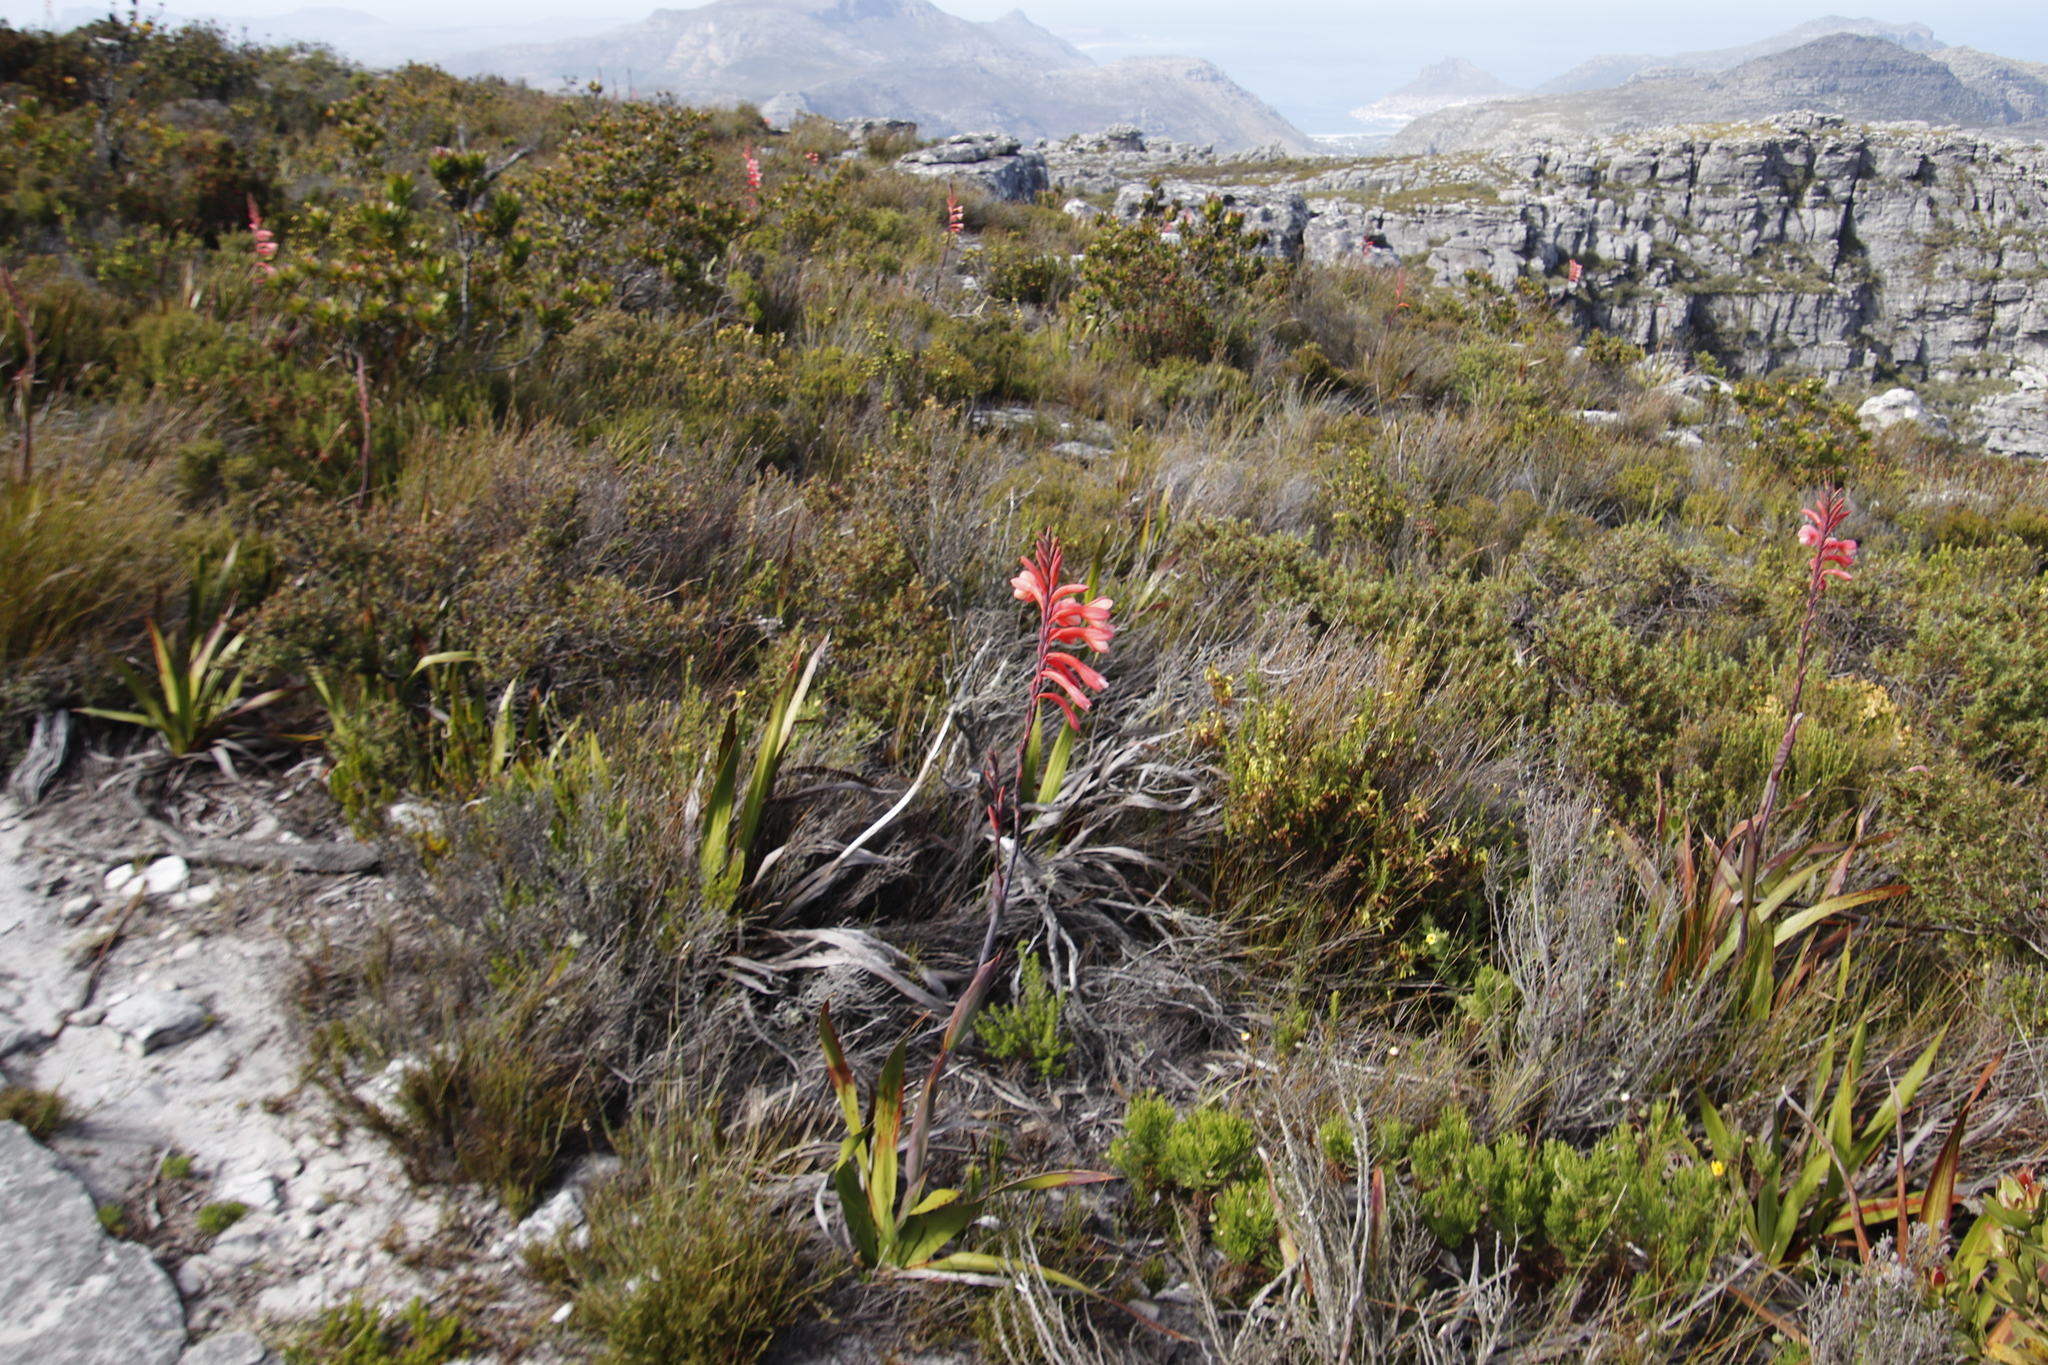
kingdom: Plantae
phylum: Tracheophyta
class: Liliopsida
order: Asparagales
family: Iridaceae
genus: Watsonia
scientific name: Watsonia tabularis
